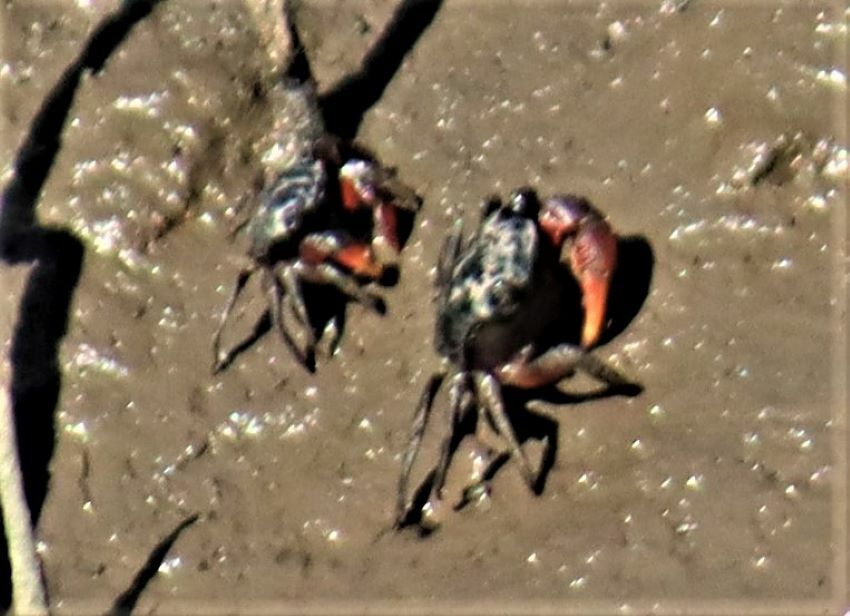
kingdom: Animalia
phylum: Arthropoda
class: Malacostraca
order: Decapoda
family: Sesarmidae
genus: Parasesarma
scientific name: Parasesarma catenatum
